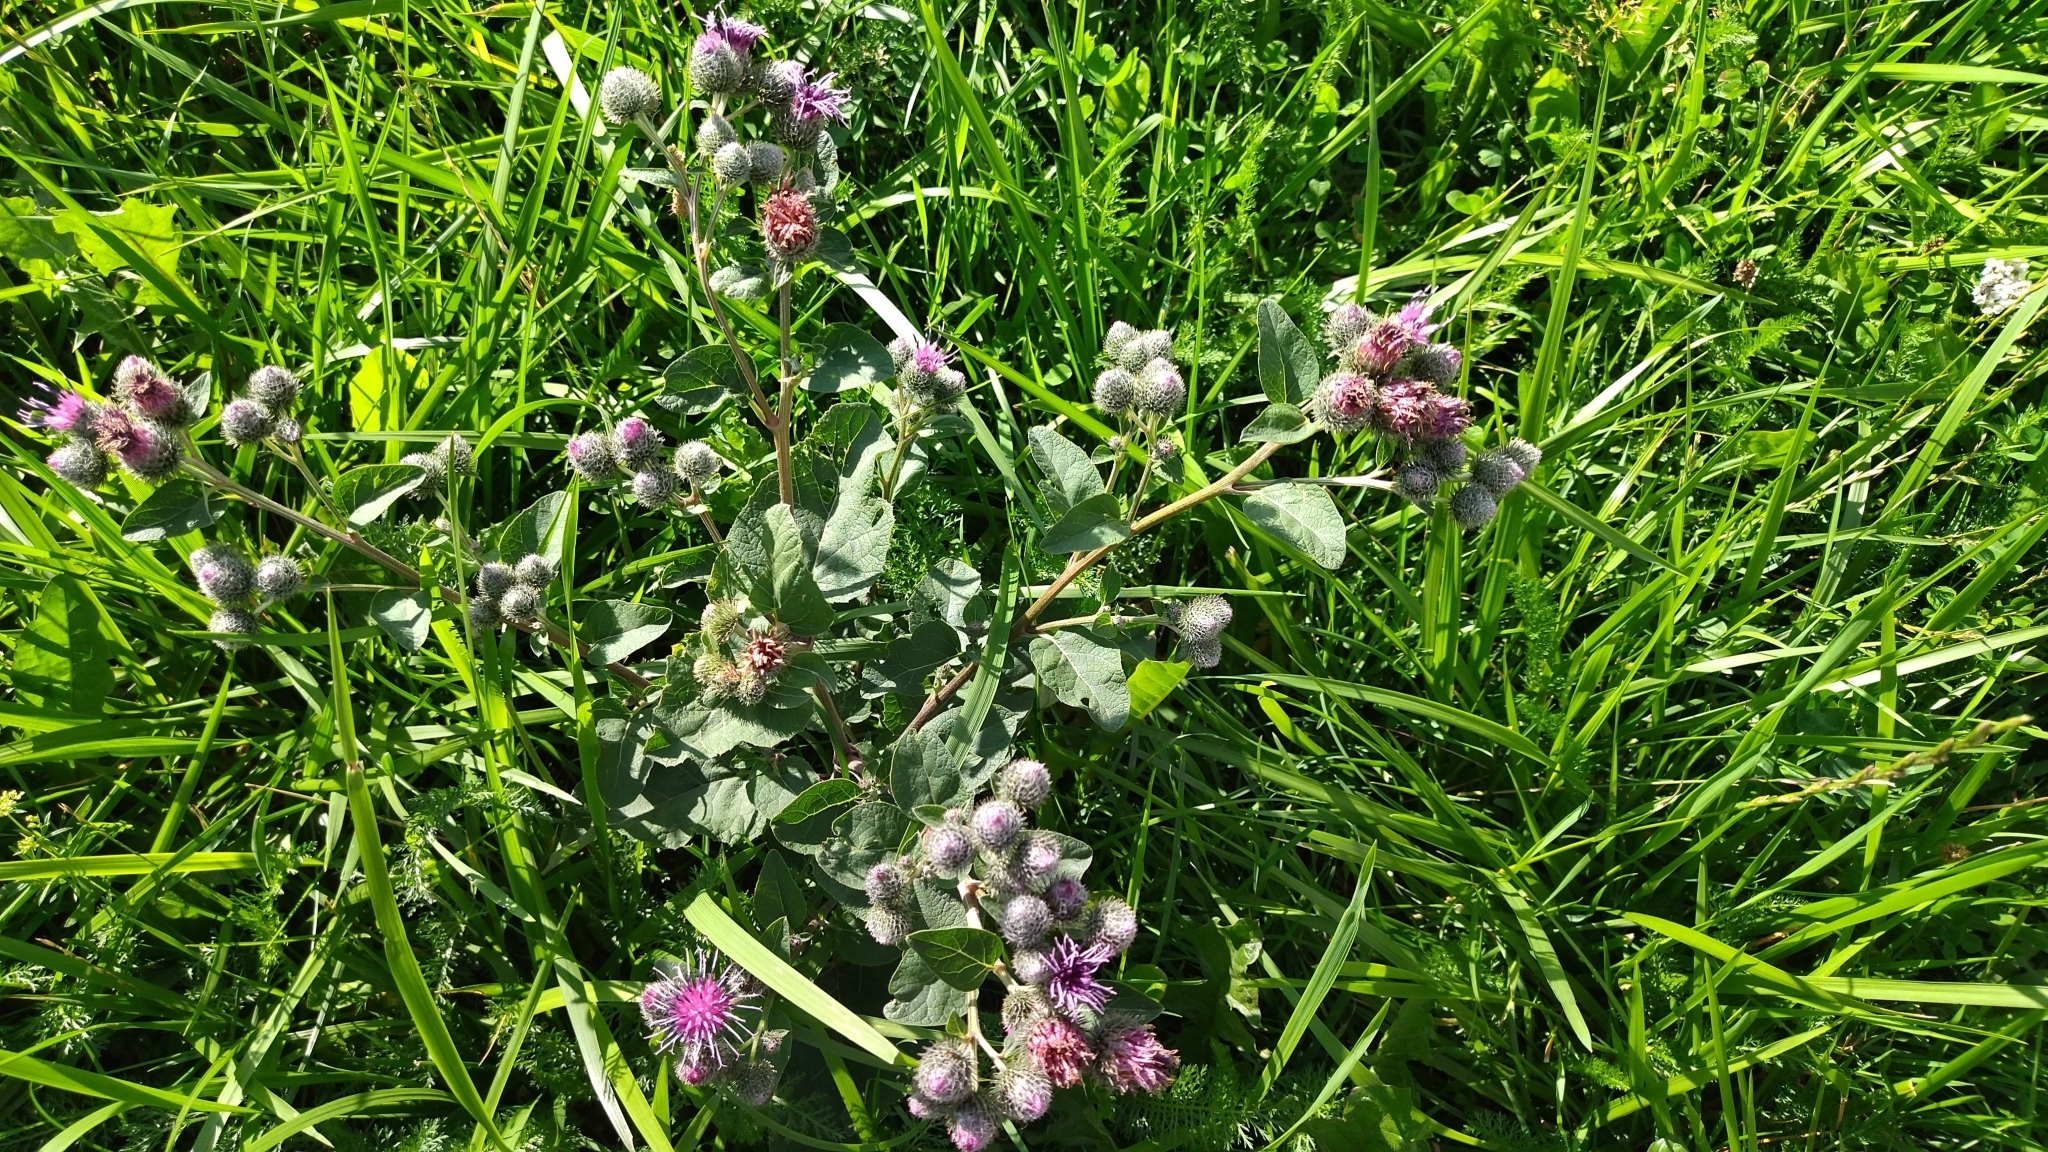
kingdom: Plantae
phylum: Tracheophyta
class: Magnoliopsida
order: Asterales
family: Asteraceae
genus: Arctium
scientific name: Arctium tomentosum
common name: Woolly burdock
